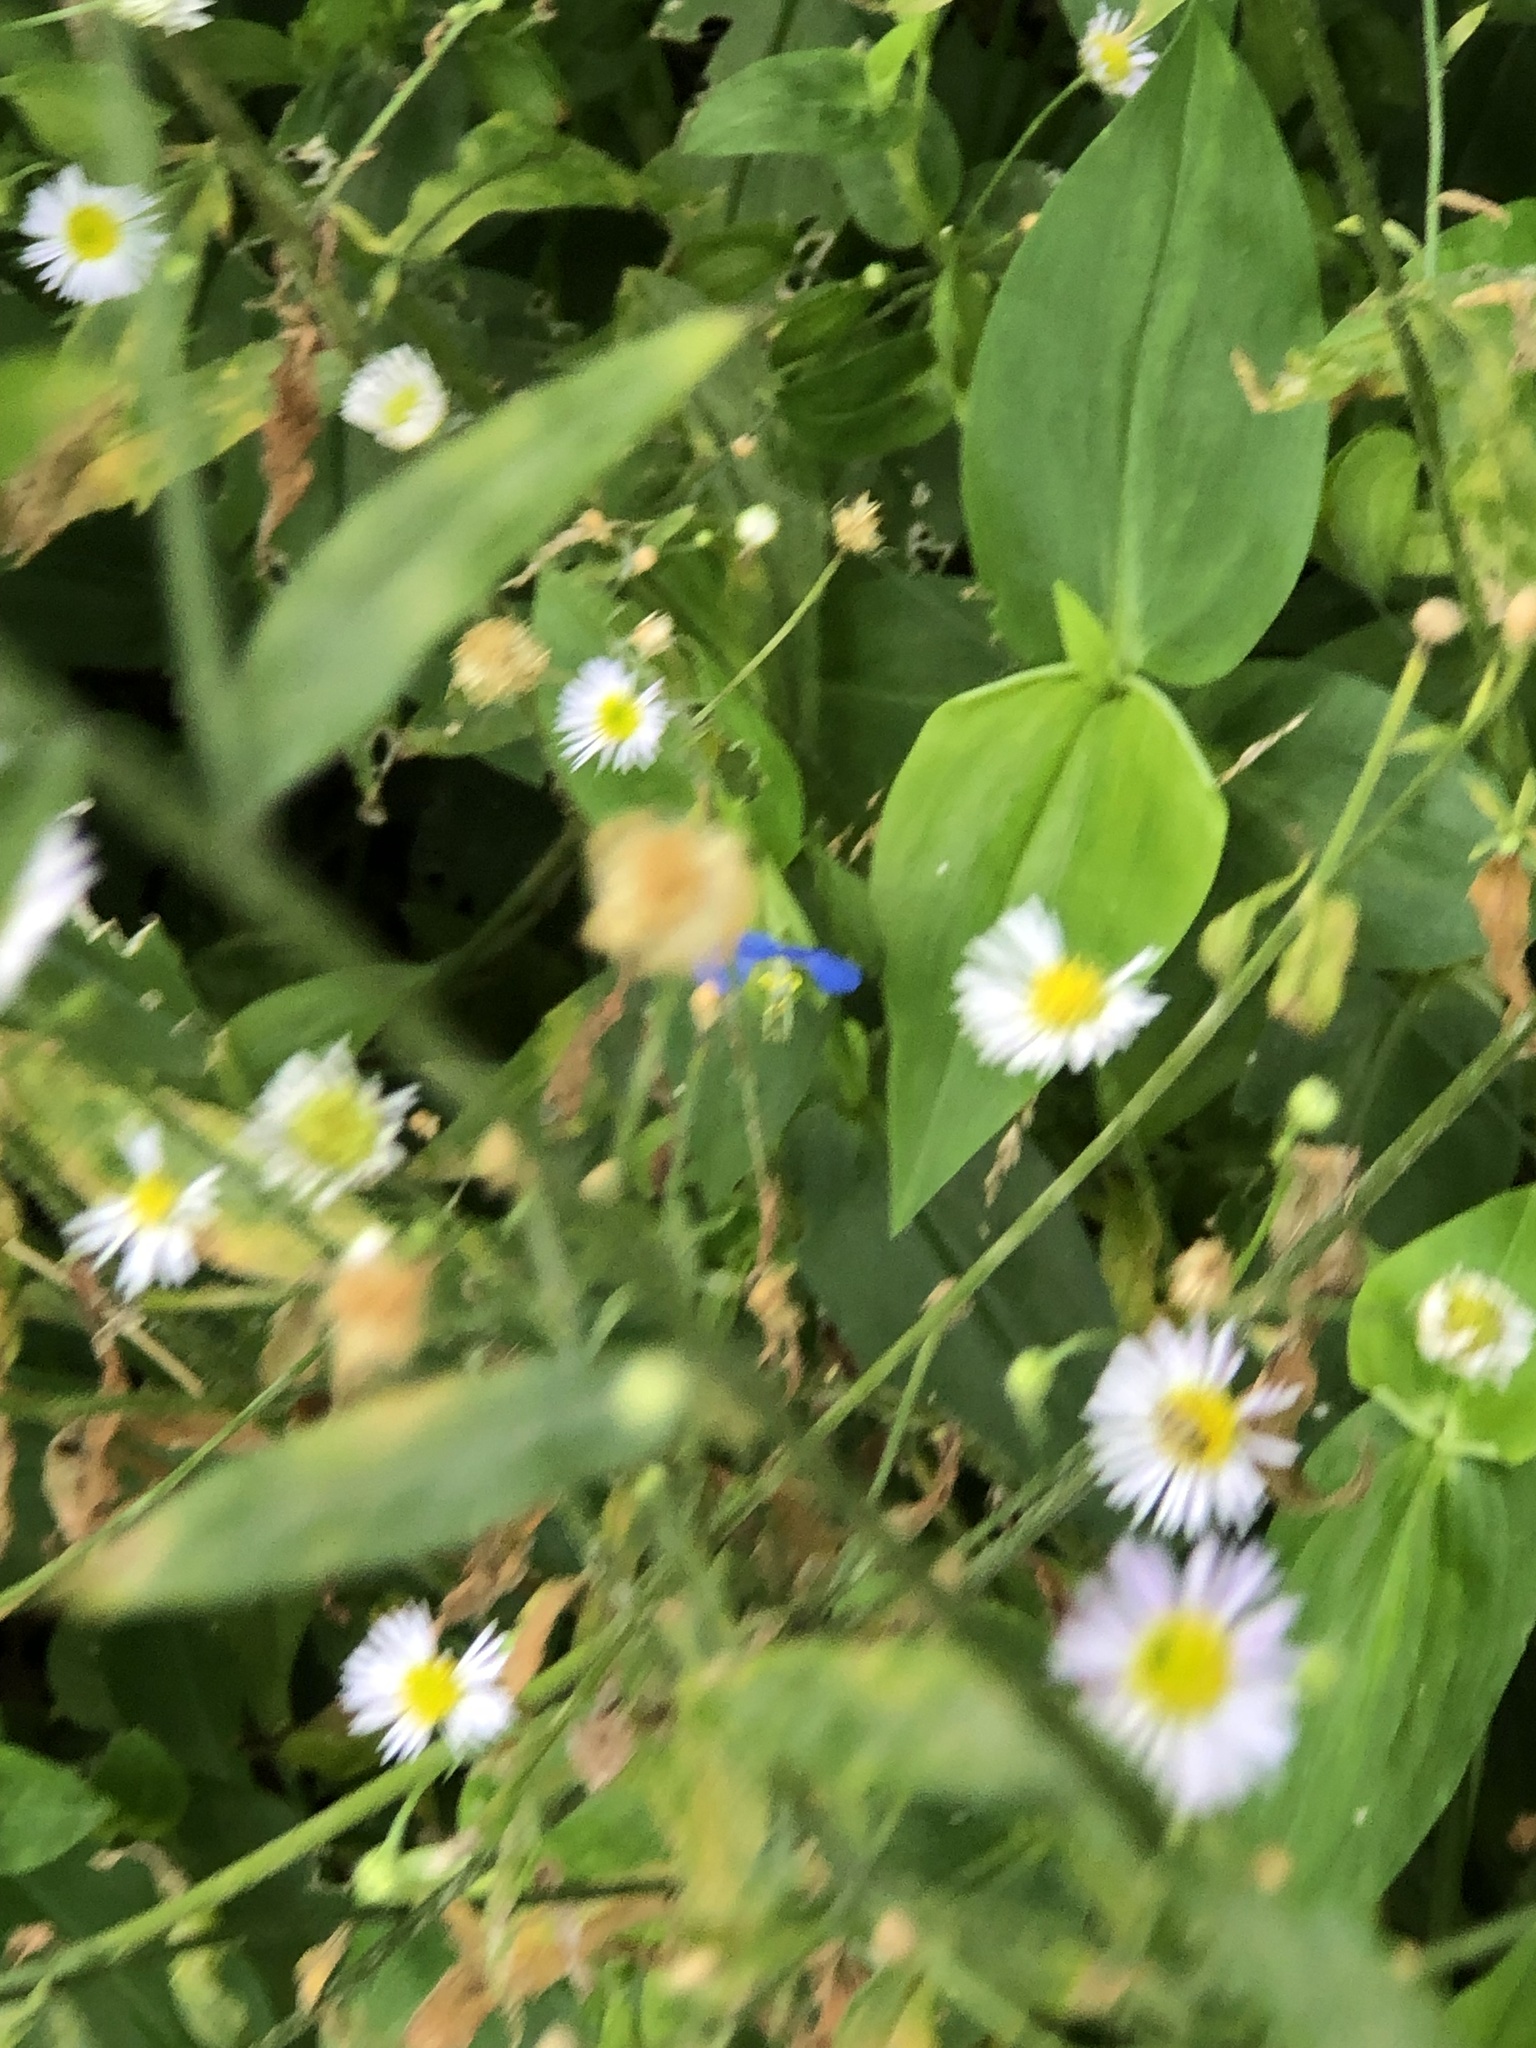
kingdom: Plantae
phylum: Tracheophyta
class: Liliopsida
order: Commelinales
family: Commelinaceae
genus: Commelina
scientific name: Commelina communis
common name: Asiatic dayflower
